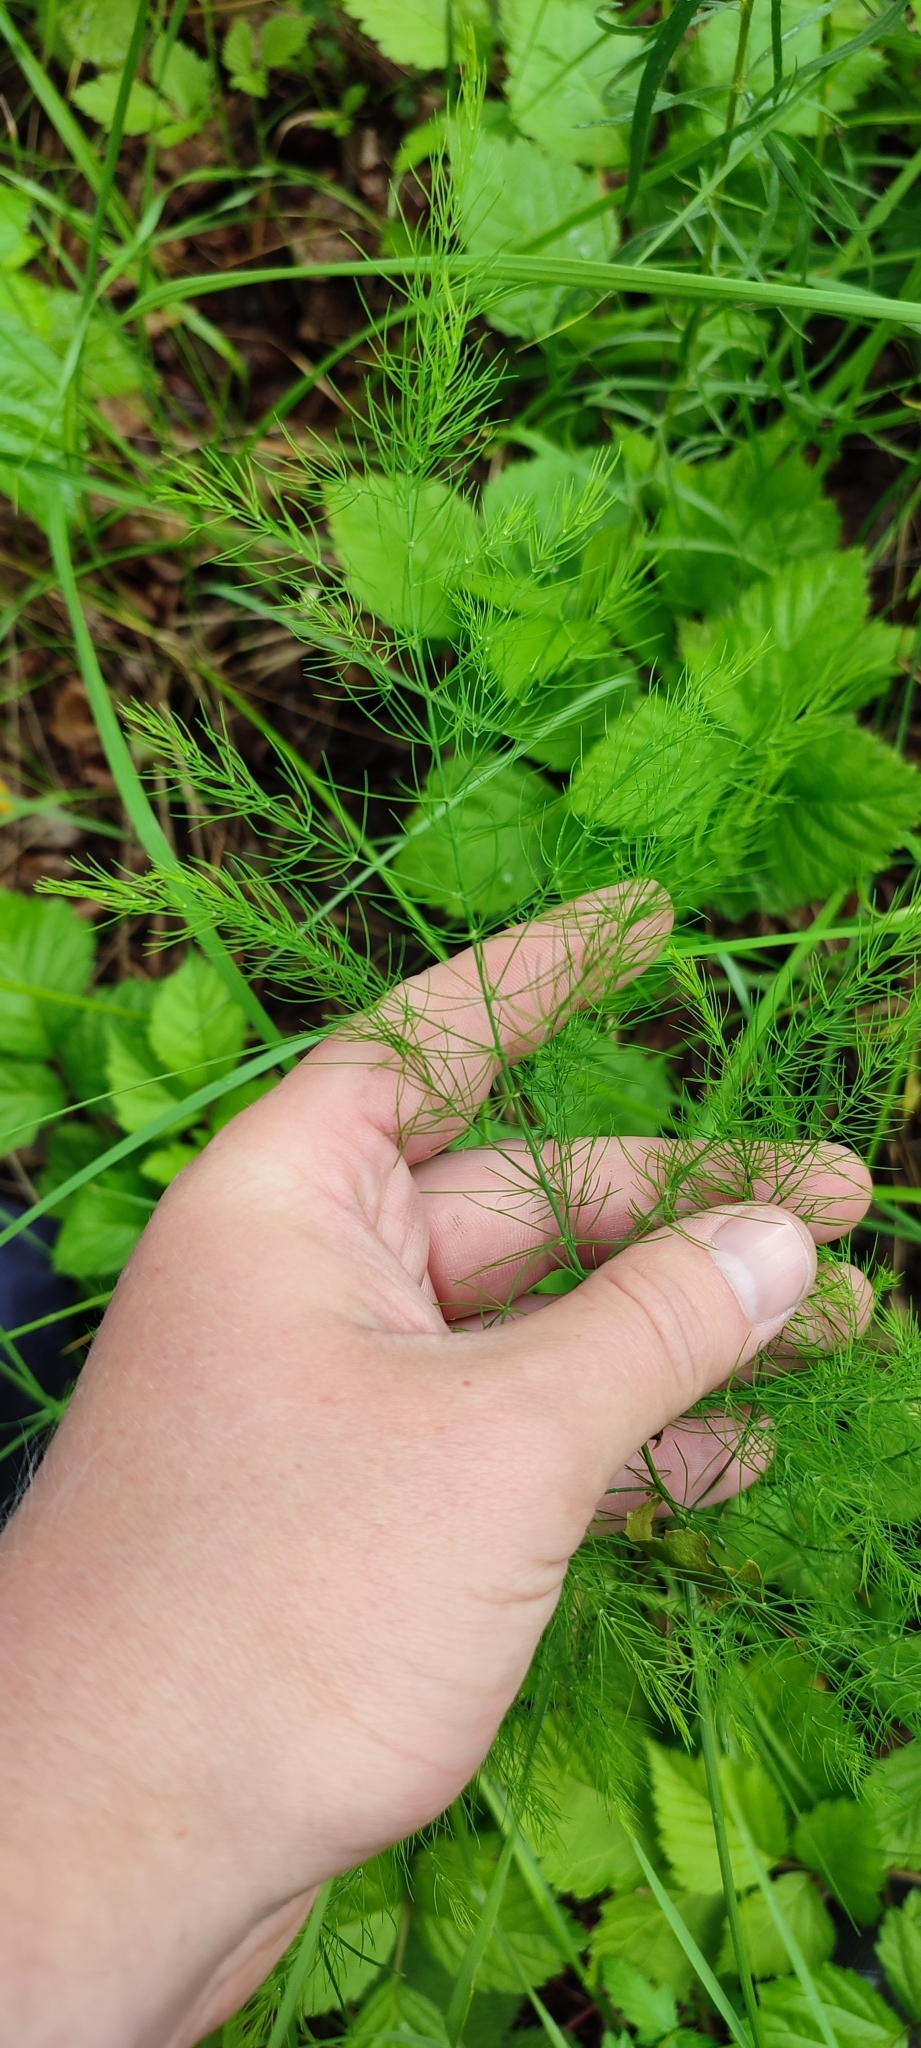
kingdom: Plantae
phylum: Tracheophyta
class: Liliopsida
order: Asparagales
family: Asparagaceae
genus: Asparagus
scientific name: Asparagus officinalis
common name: Garden asparagus
